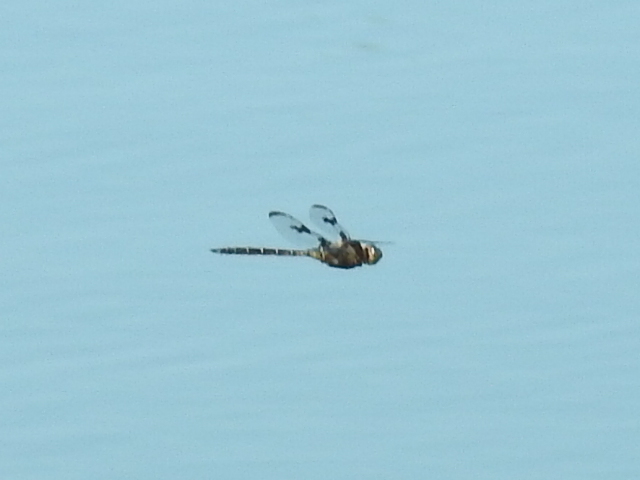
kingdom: Animalia
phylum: Arthropoda
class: Insecta
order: Odonata
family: Corduliidae
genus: Epitheca
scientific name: Epitheca princeps
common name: Prince baskettail
